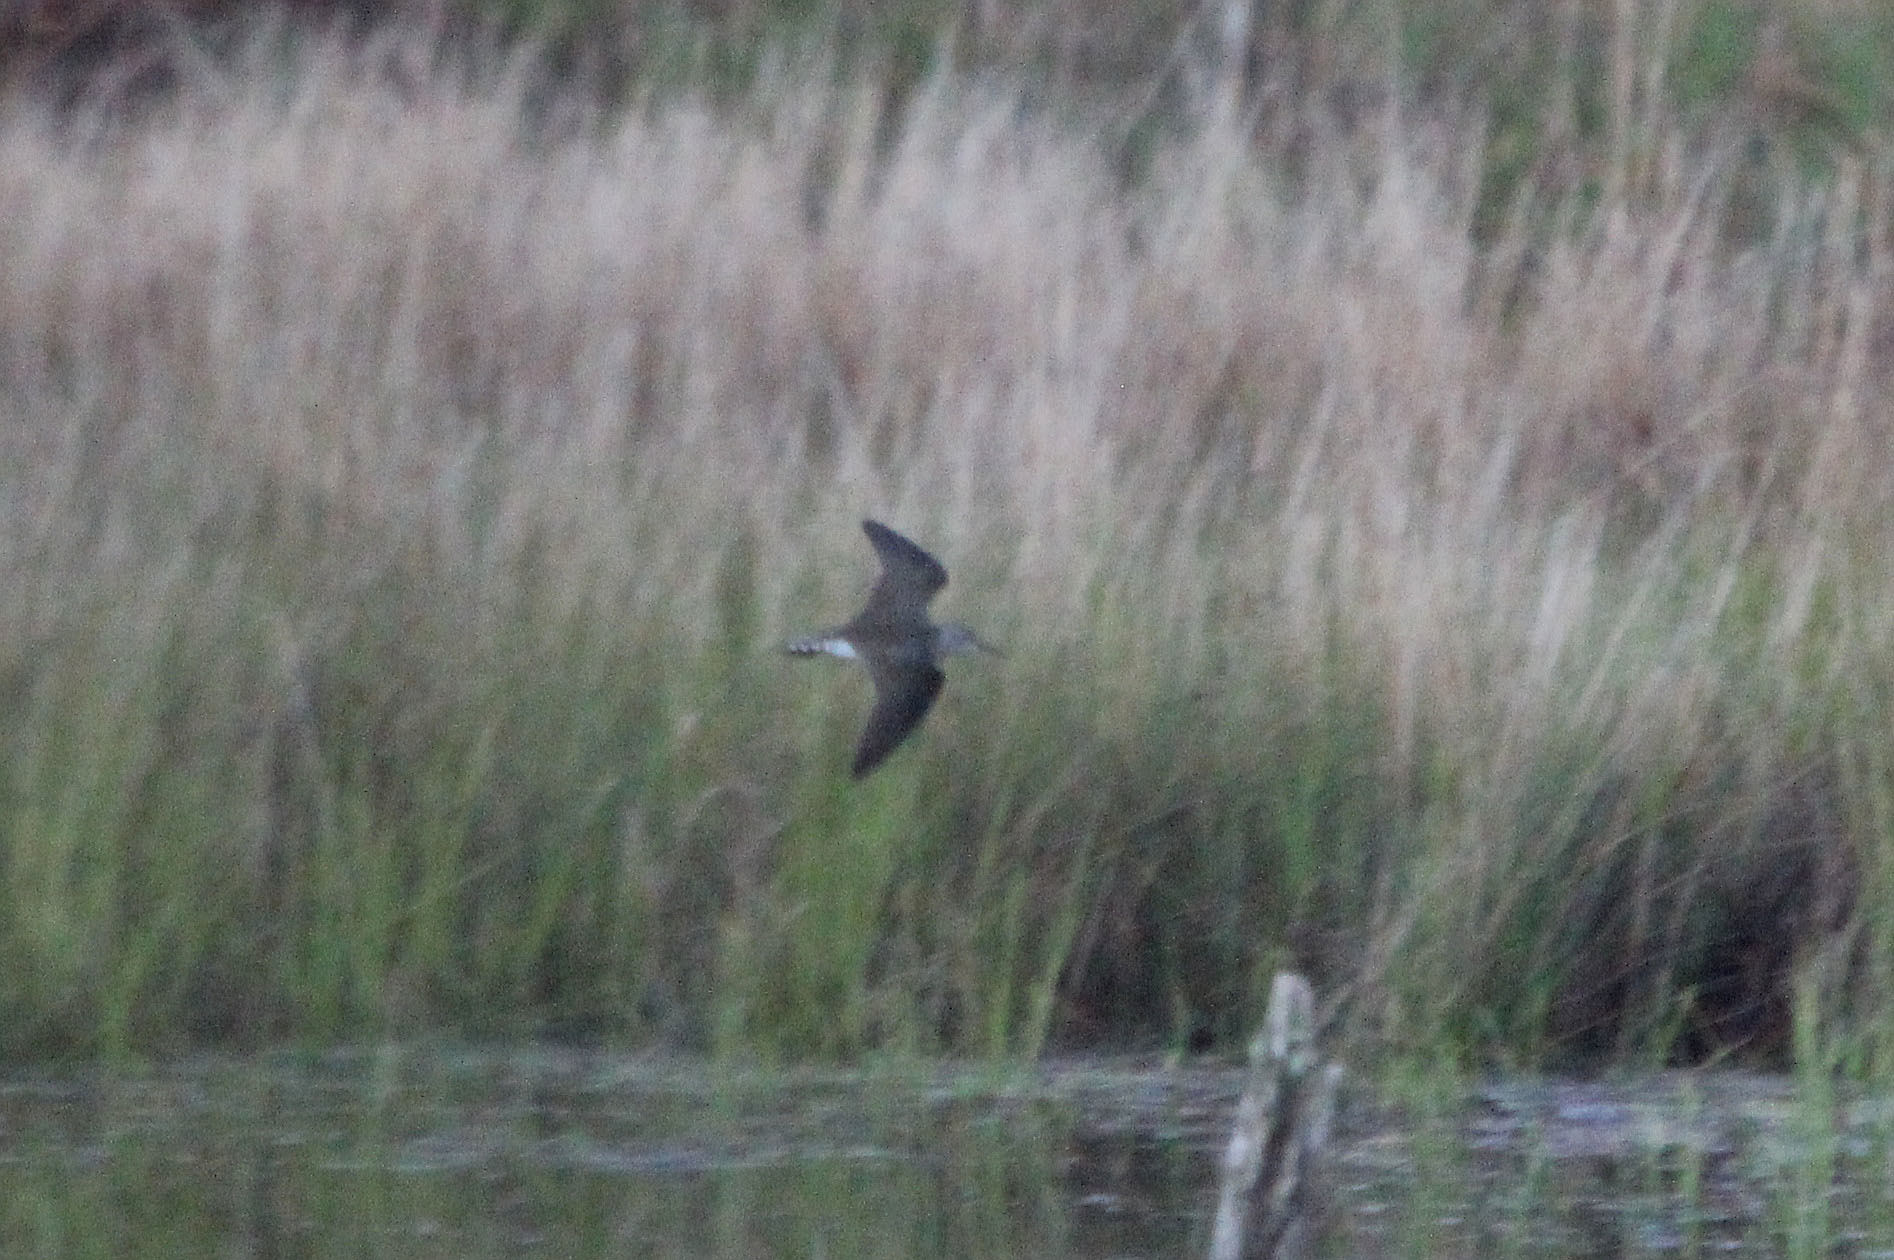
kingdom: Animalia
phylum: Chordata
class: Aves
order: Charadriiformes
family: Scolopacidae
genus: Tringa
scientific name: Tringa solitaria
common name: Solitary sandpiper
